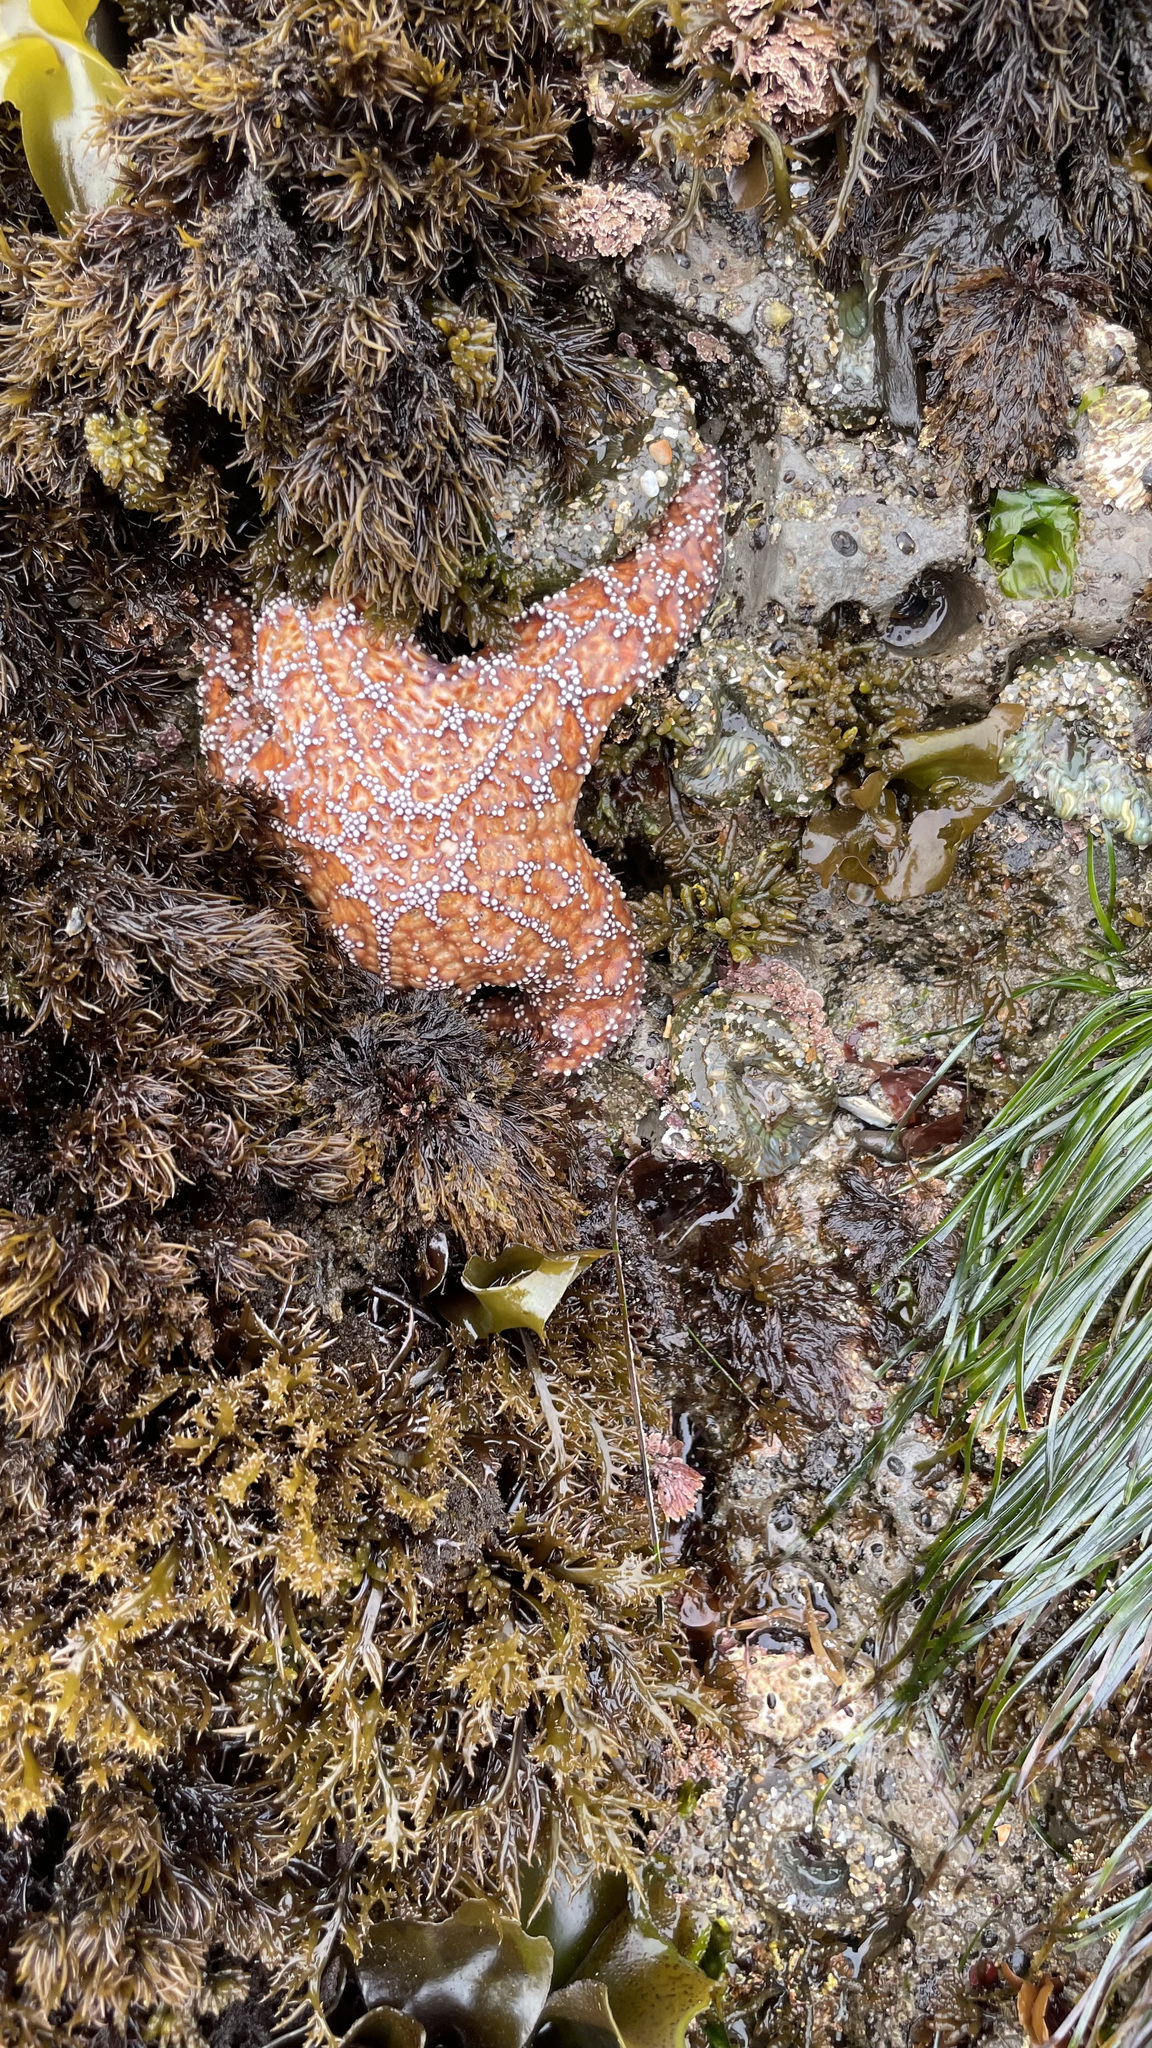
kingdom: Animalia
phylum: Echinodermata
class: Asteroidea
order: Forcipulatida
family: Asteriidae
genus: Pisaster
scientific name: Pisaster ochraceus
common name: Ochre stars
